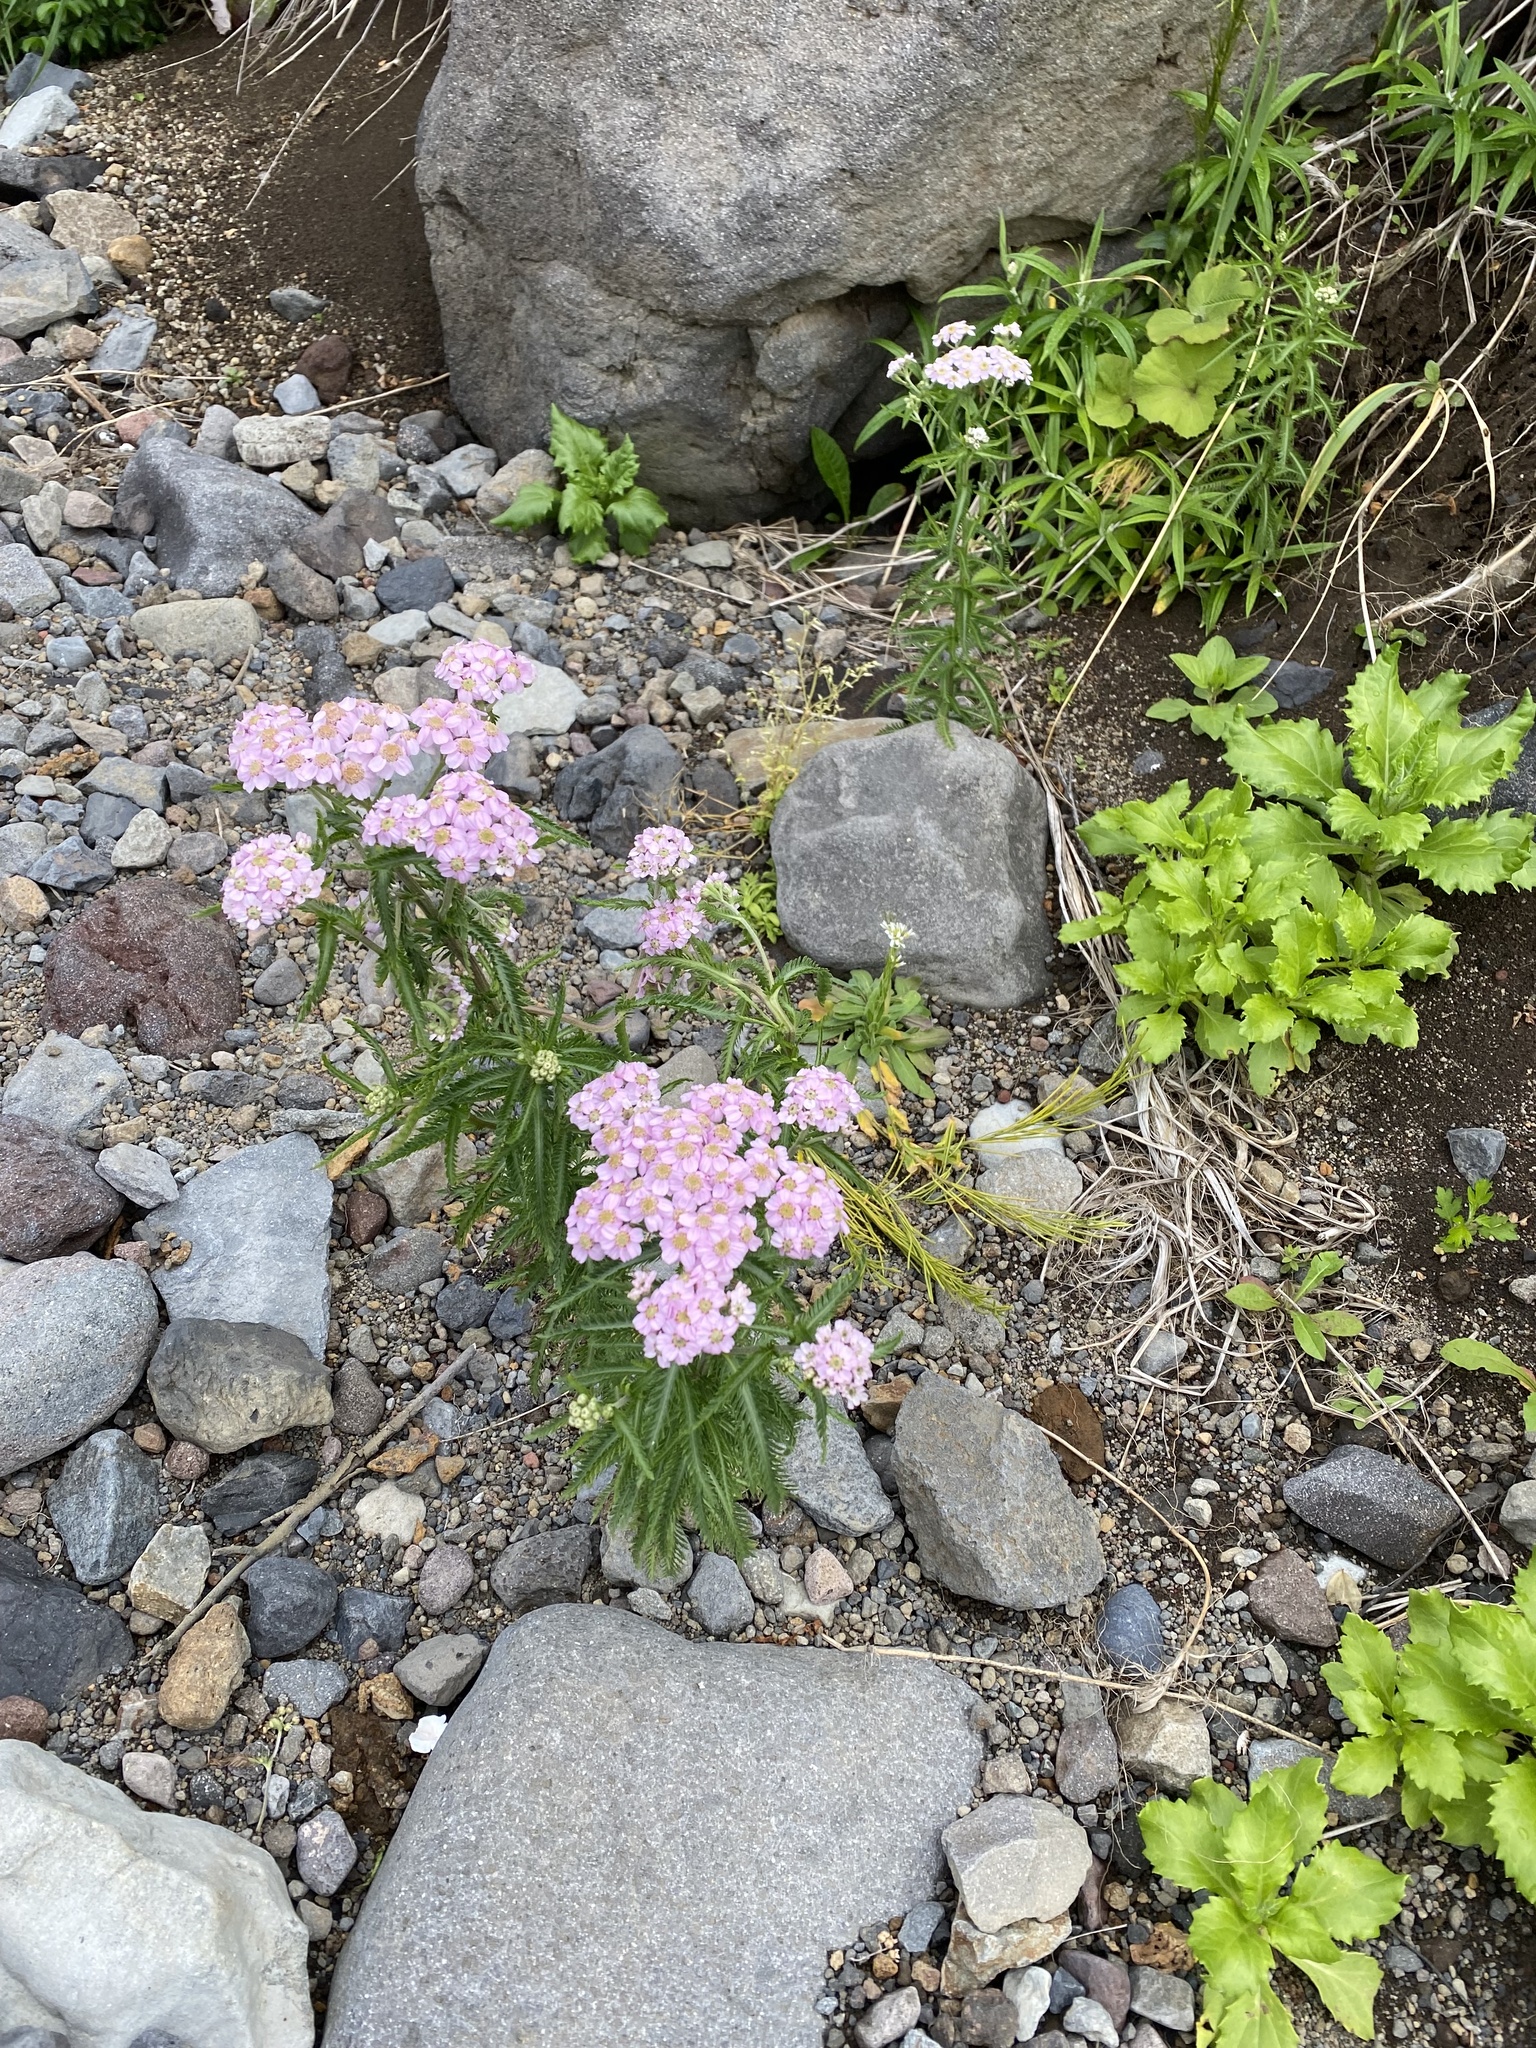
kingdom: Plantae
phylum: Tracheophyta
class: Magnoliopsida
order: Asterales
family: Asteraceae
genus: Achillea
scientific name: Achillea alpina
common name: Siberian yarrow
